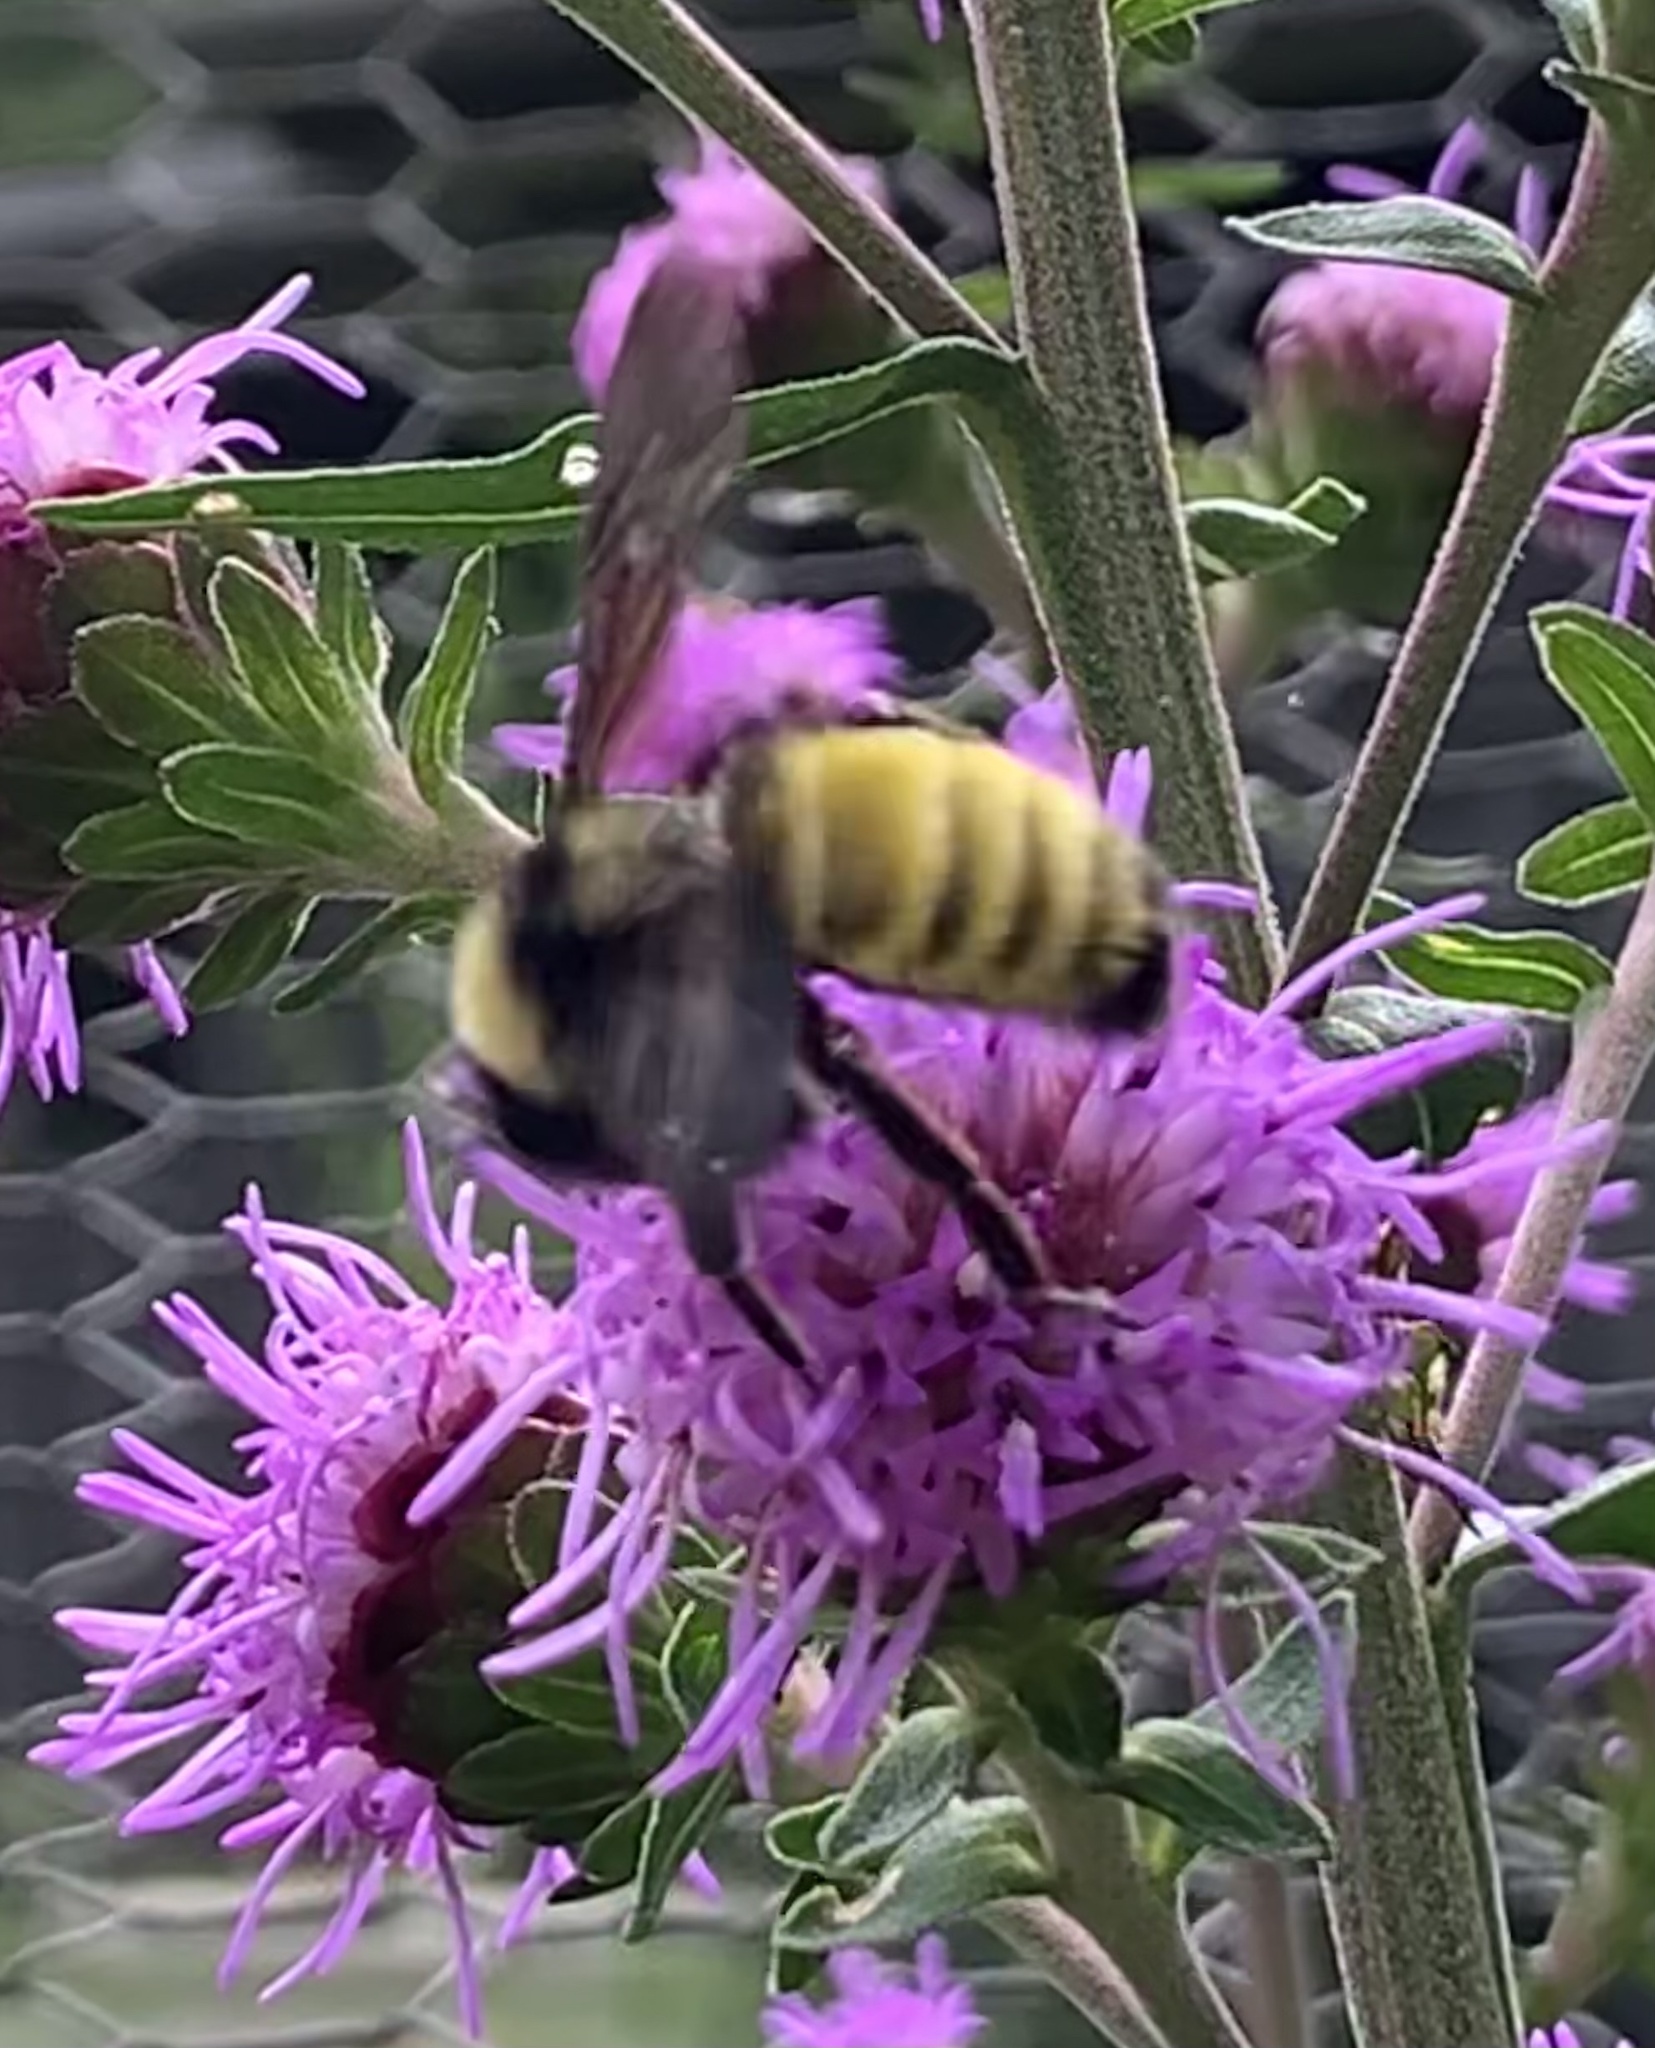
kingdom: Animalia
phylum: Arthropoda
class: Insecta
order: Hymenoptera
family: Apidae
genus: Bombus
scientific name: Bombus pensylvanicus
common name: Bumble bee
